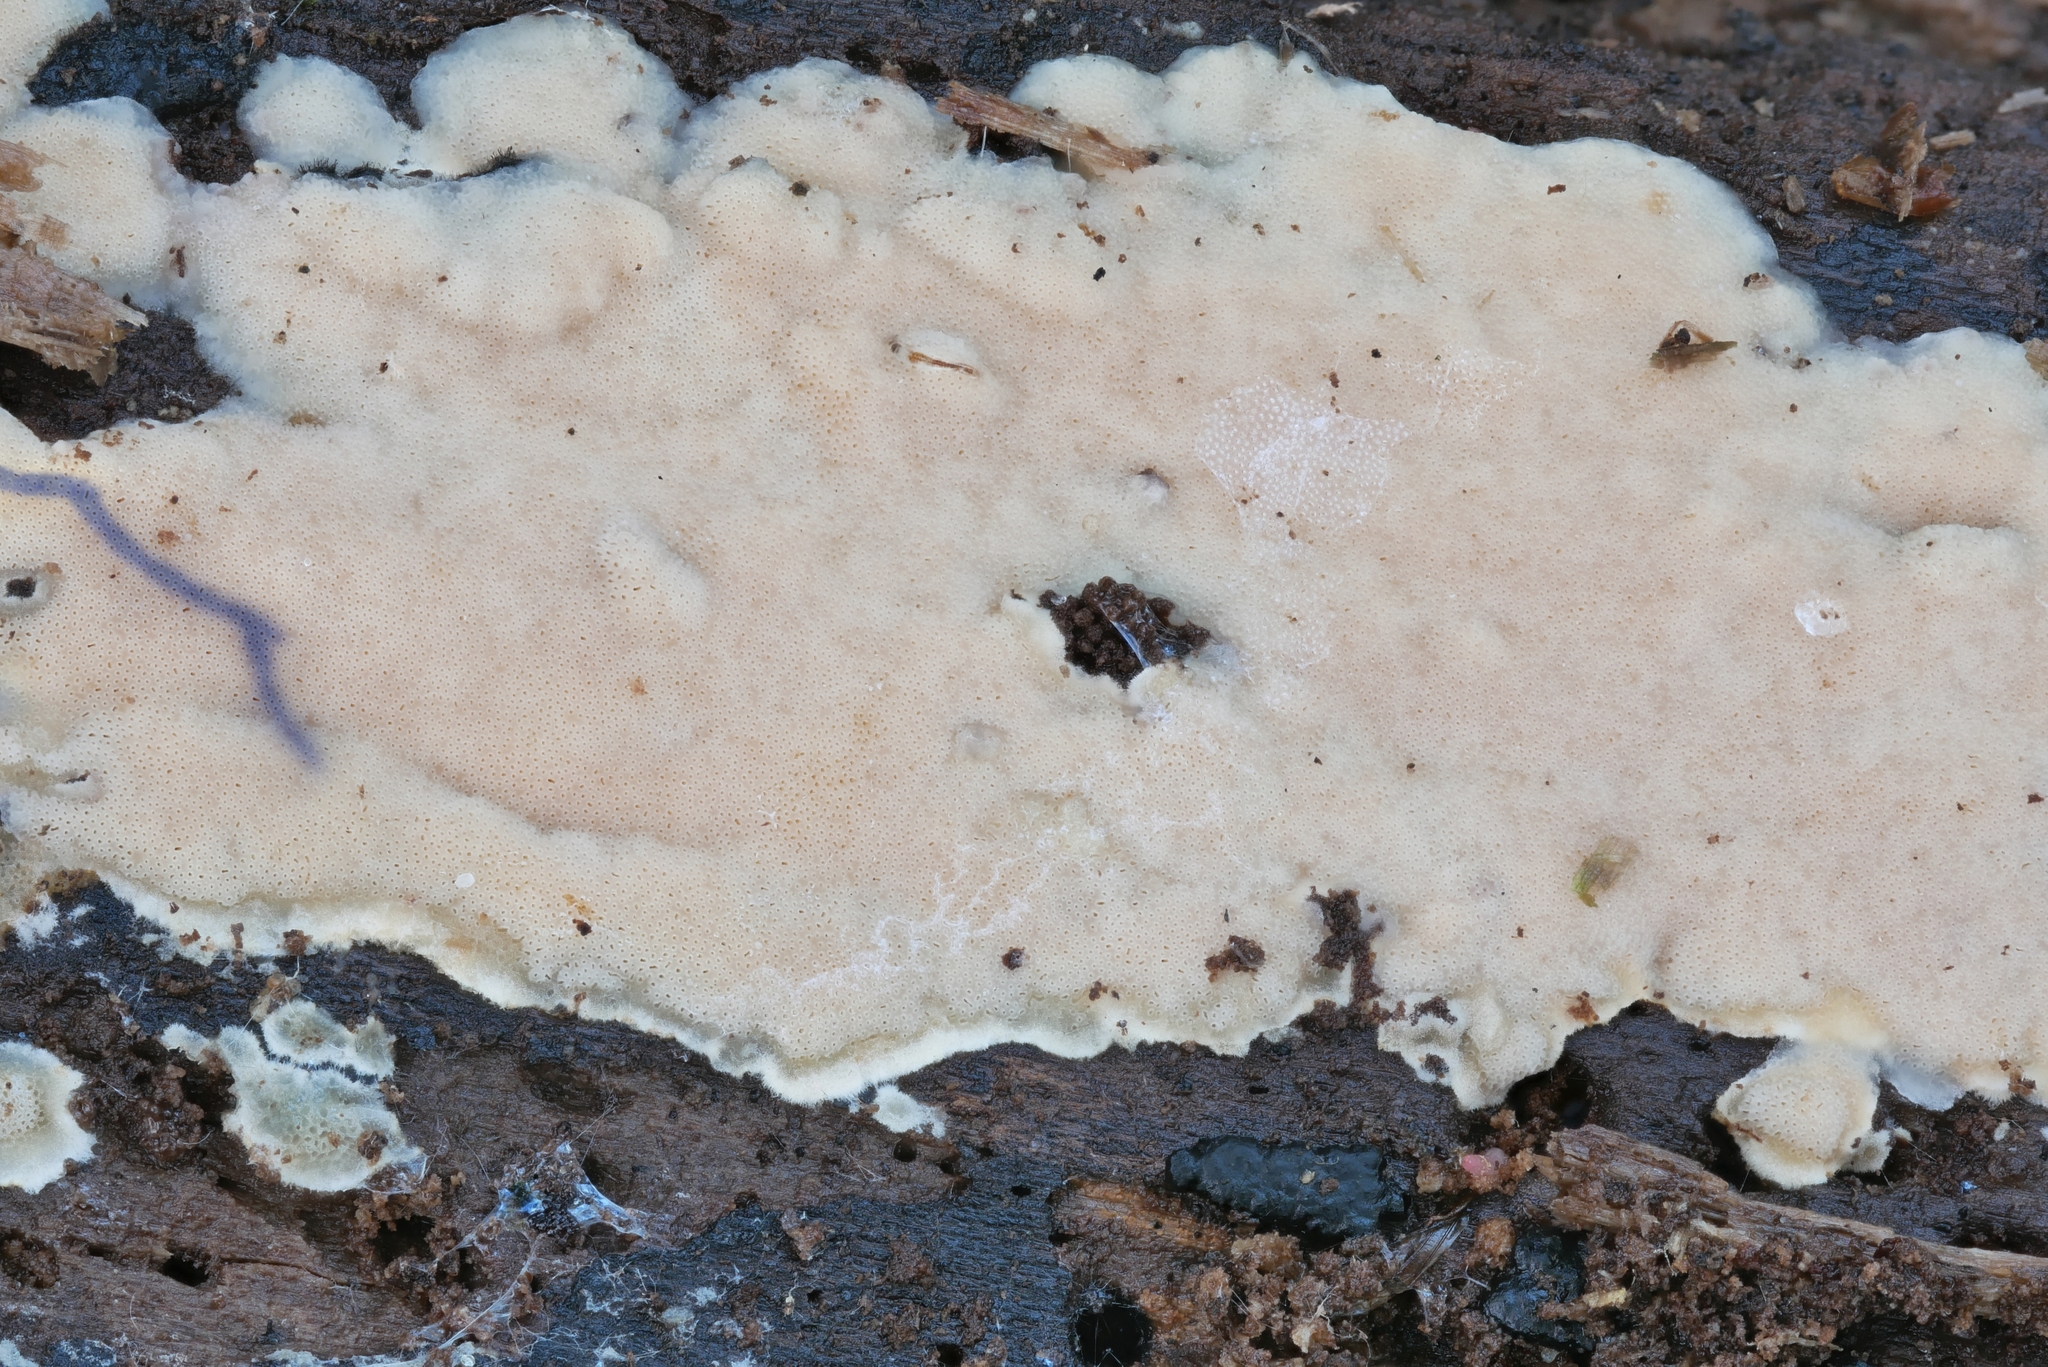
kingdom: Fungi
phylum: Basidiomycota
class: Agaricomycetes
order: Polyporales
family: Meripilaceae
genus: Rigidoporus
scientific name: Rigidoporus pouzarii
